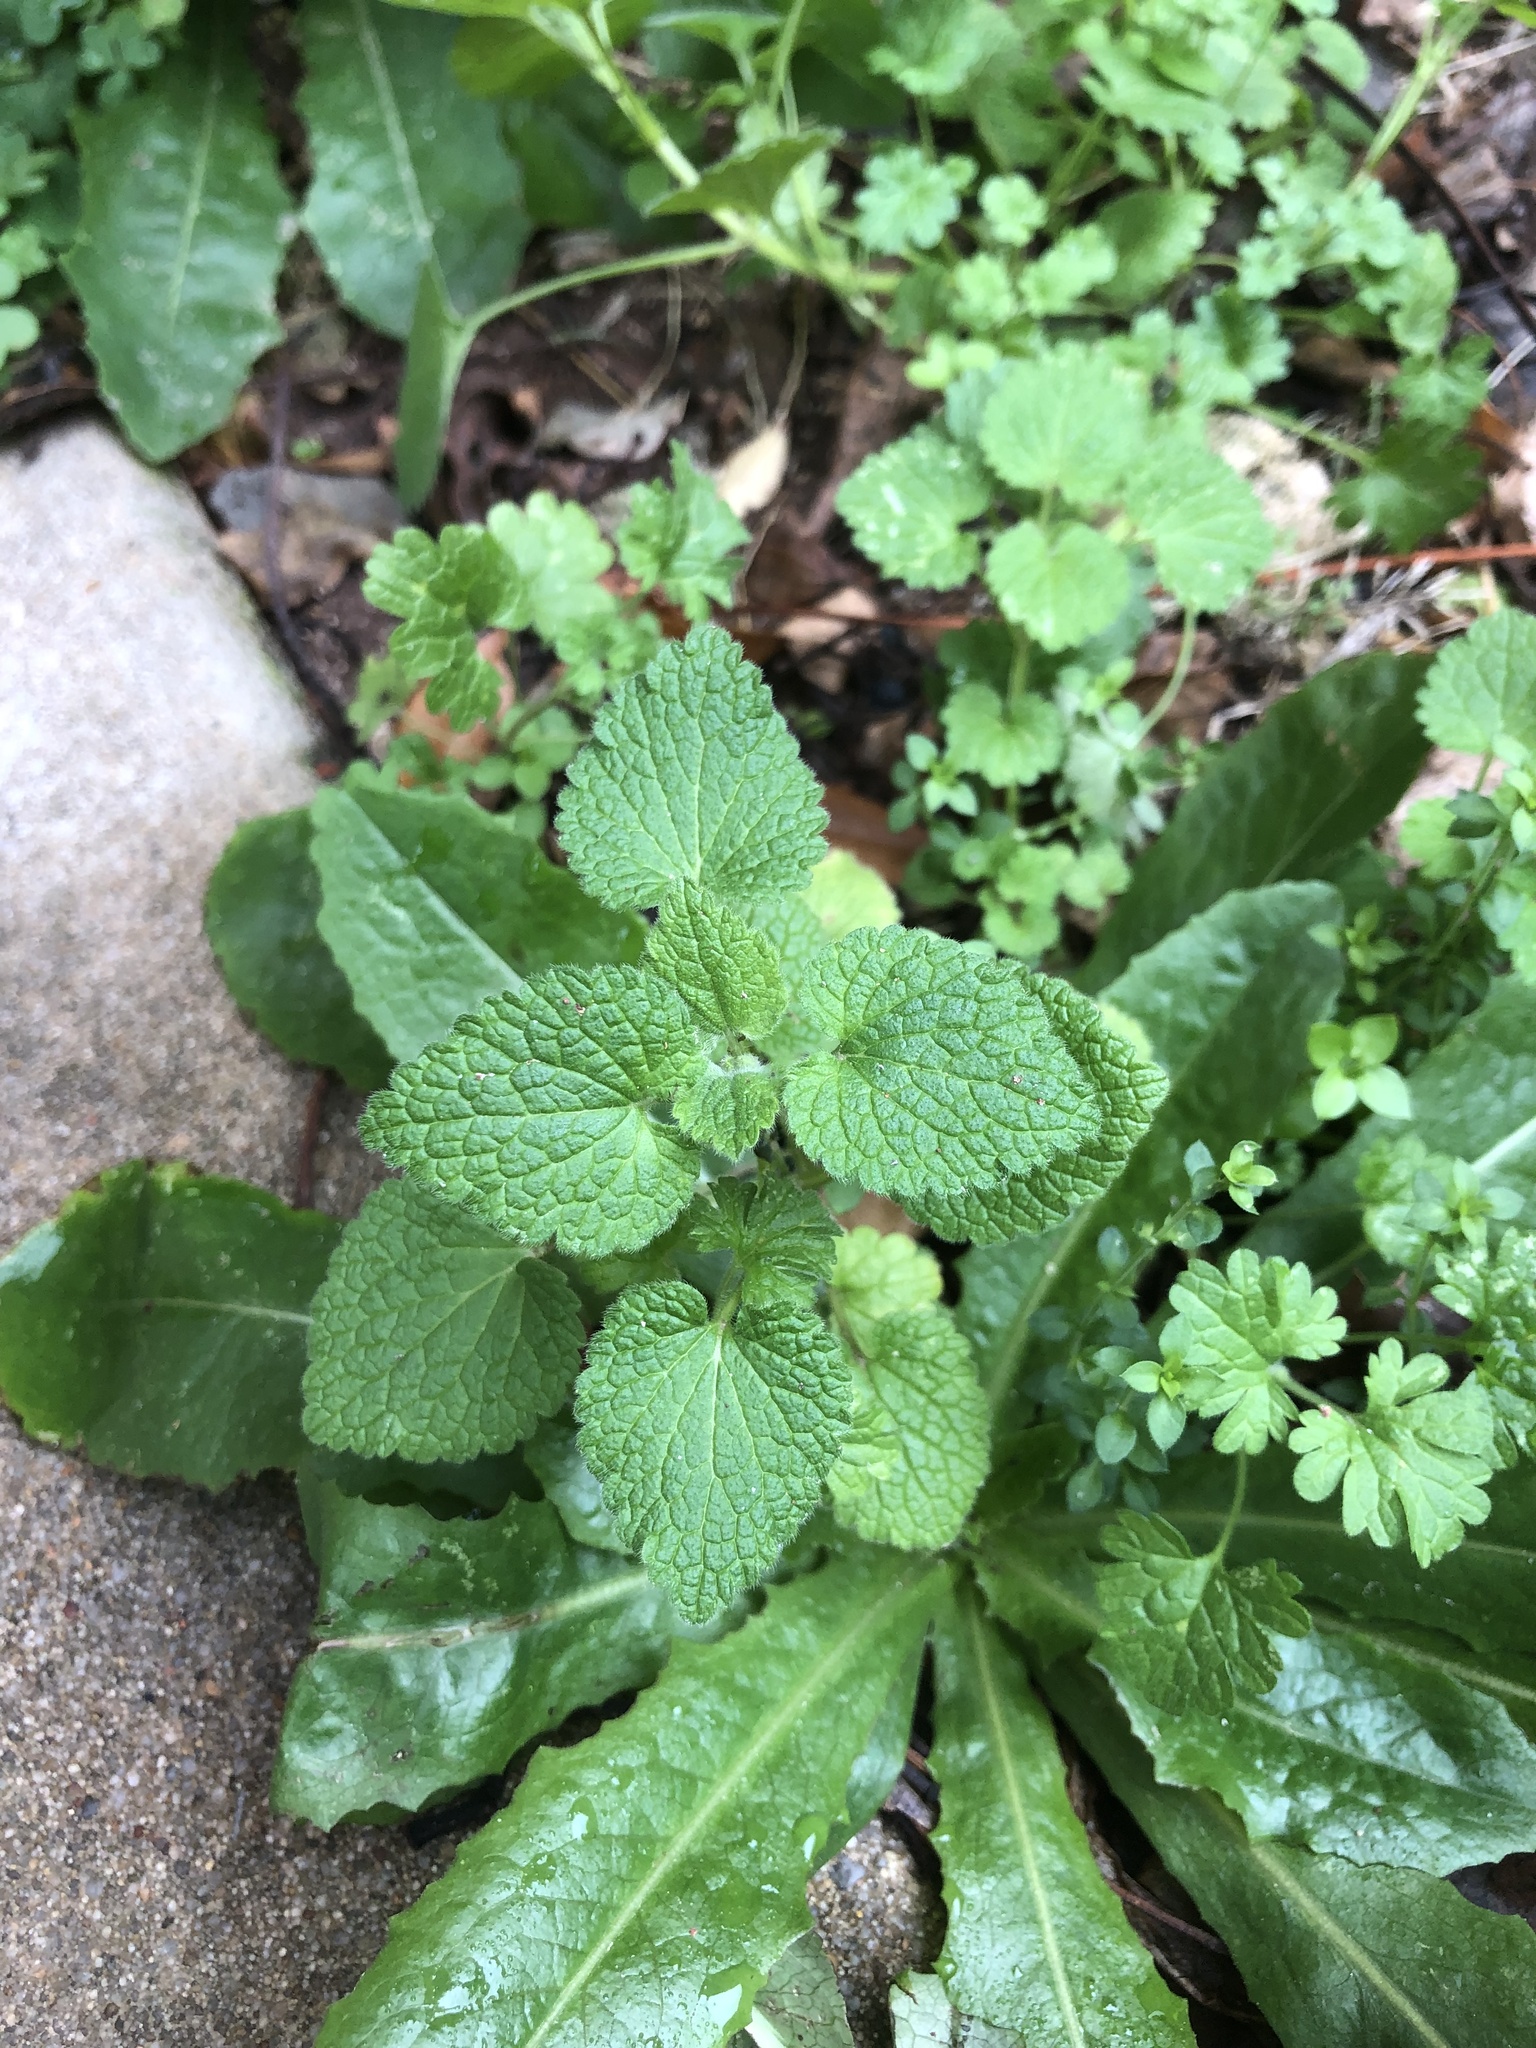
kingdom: Plantae
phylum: Tracheophyta
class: Magnoliopsida
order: Lamiales
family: Lamiaceae
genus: Lamium
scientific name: Lamium purpureum
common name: Red dead-nettle
